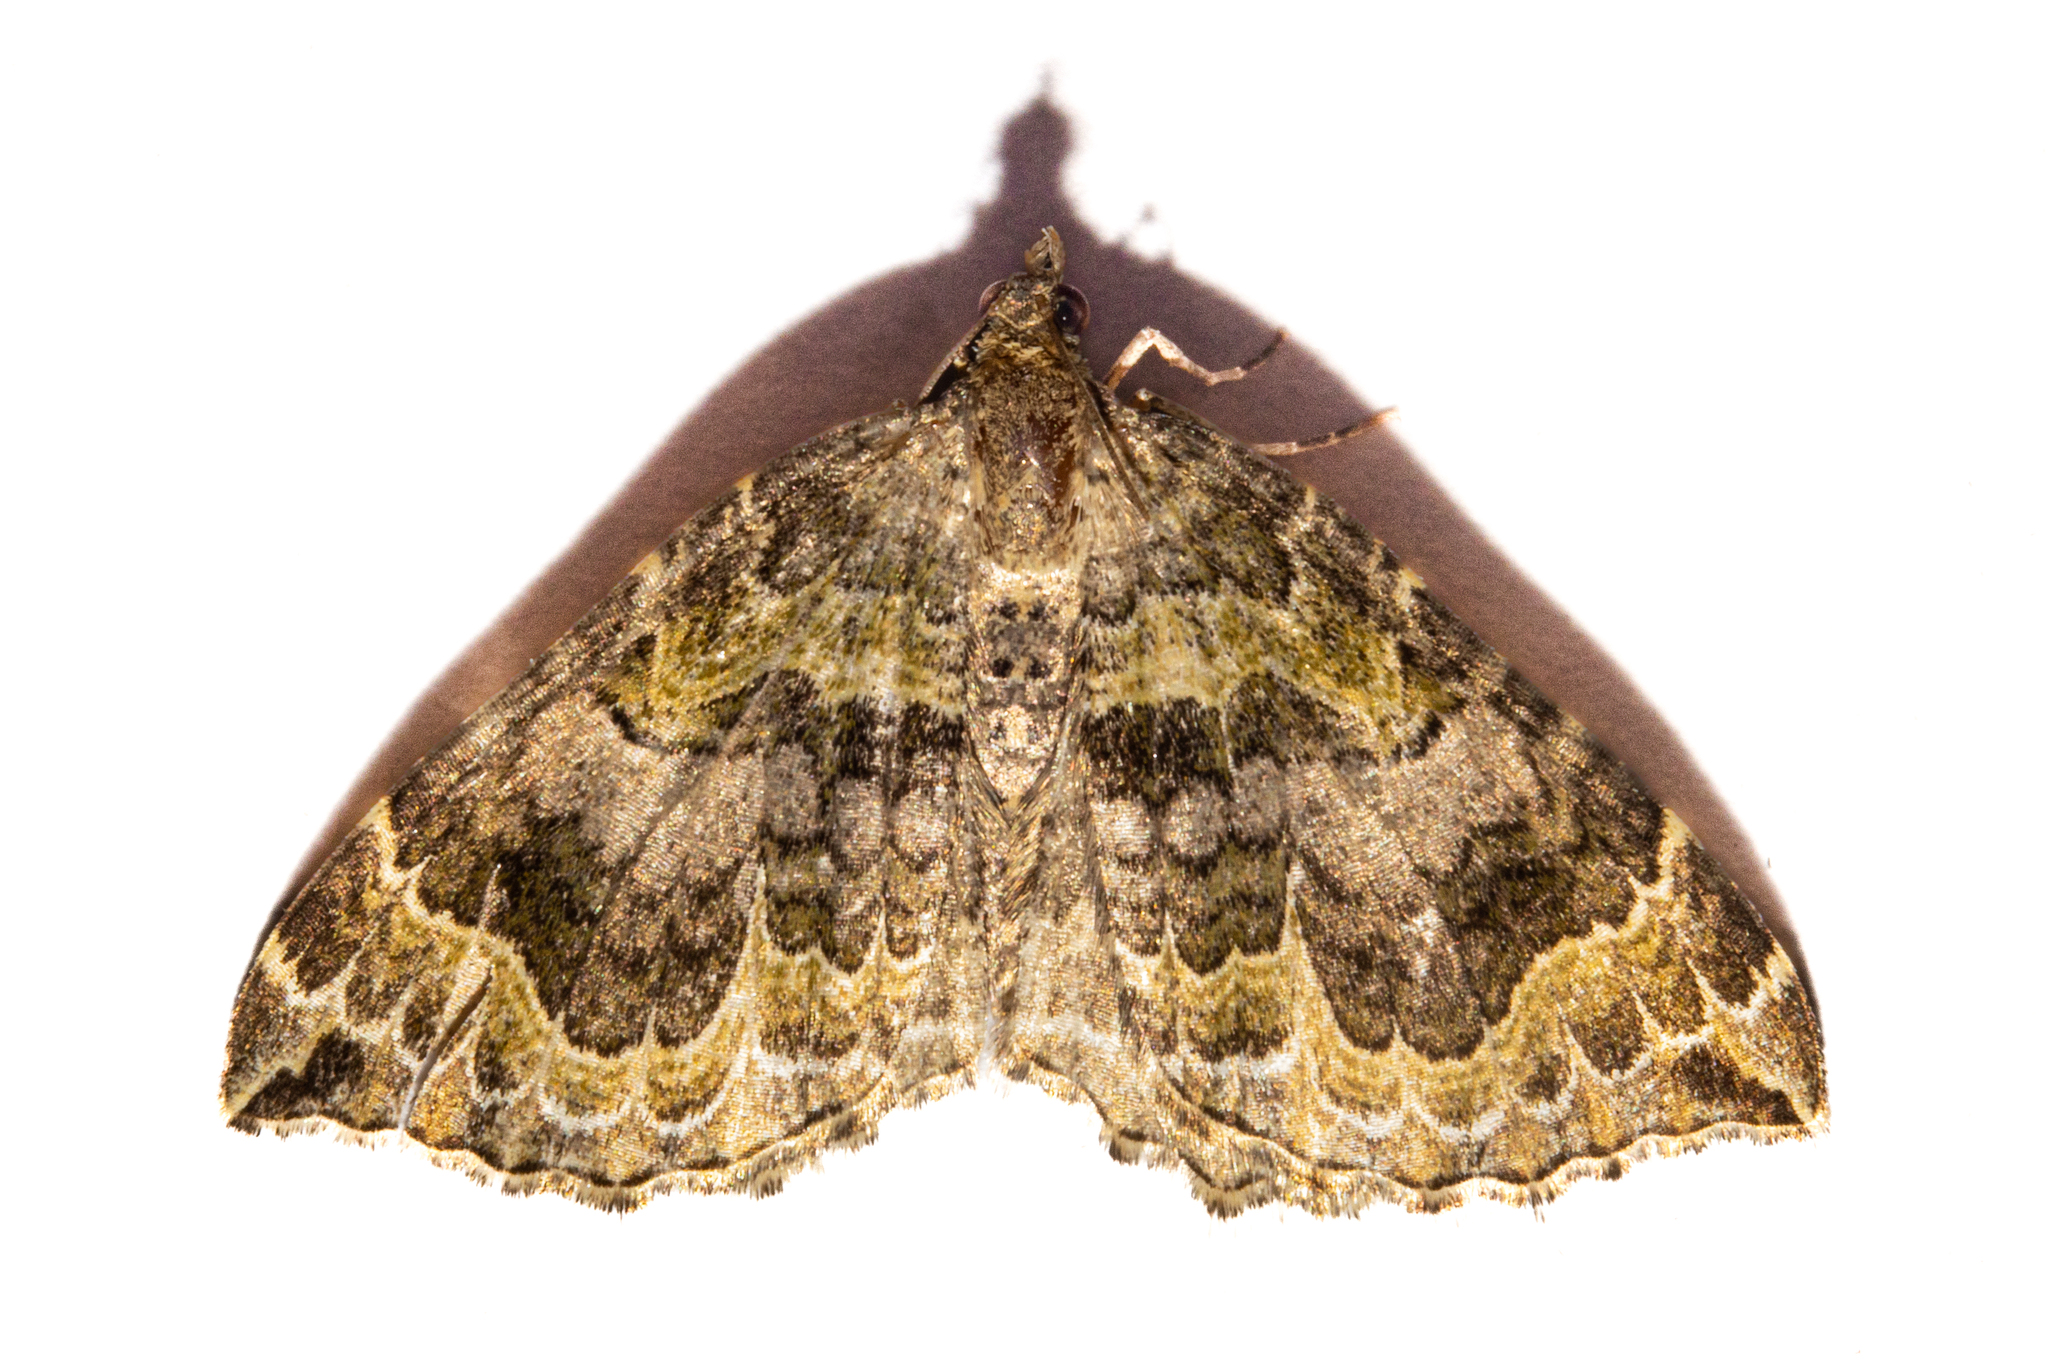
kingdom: Animalia
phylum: Arthropoda
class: Insecta
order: Lepidoptera
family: Geometridae
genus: Hydriomena
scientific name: Hydriomena rixata
